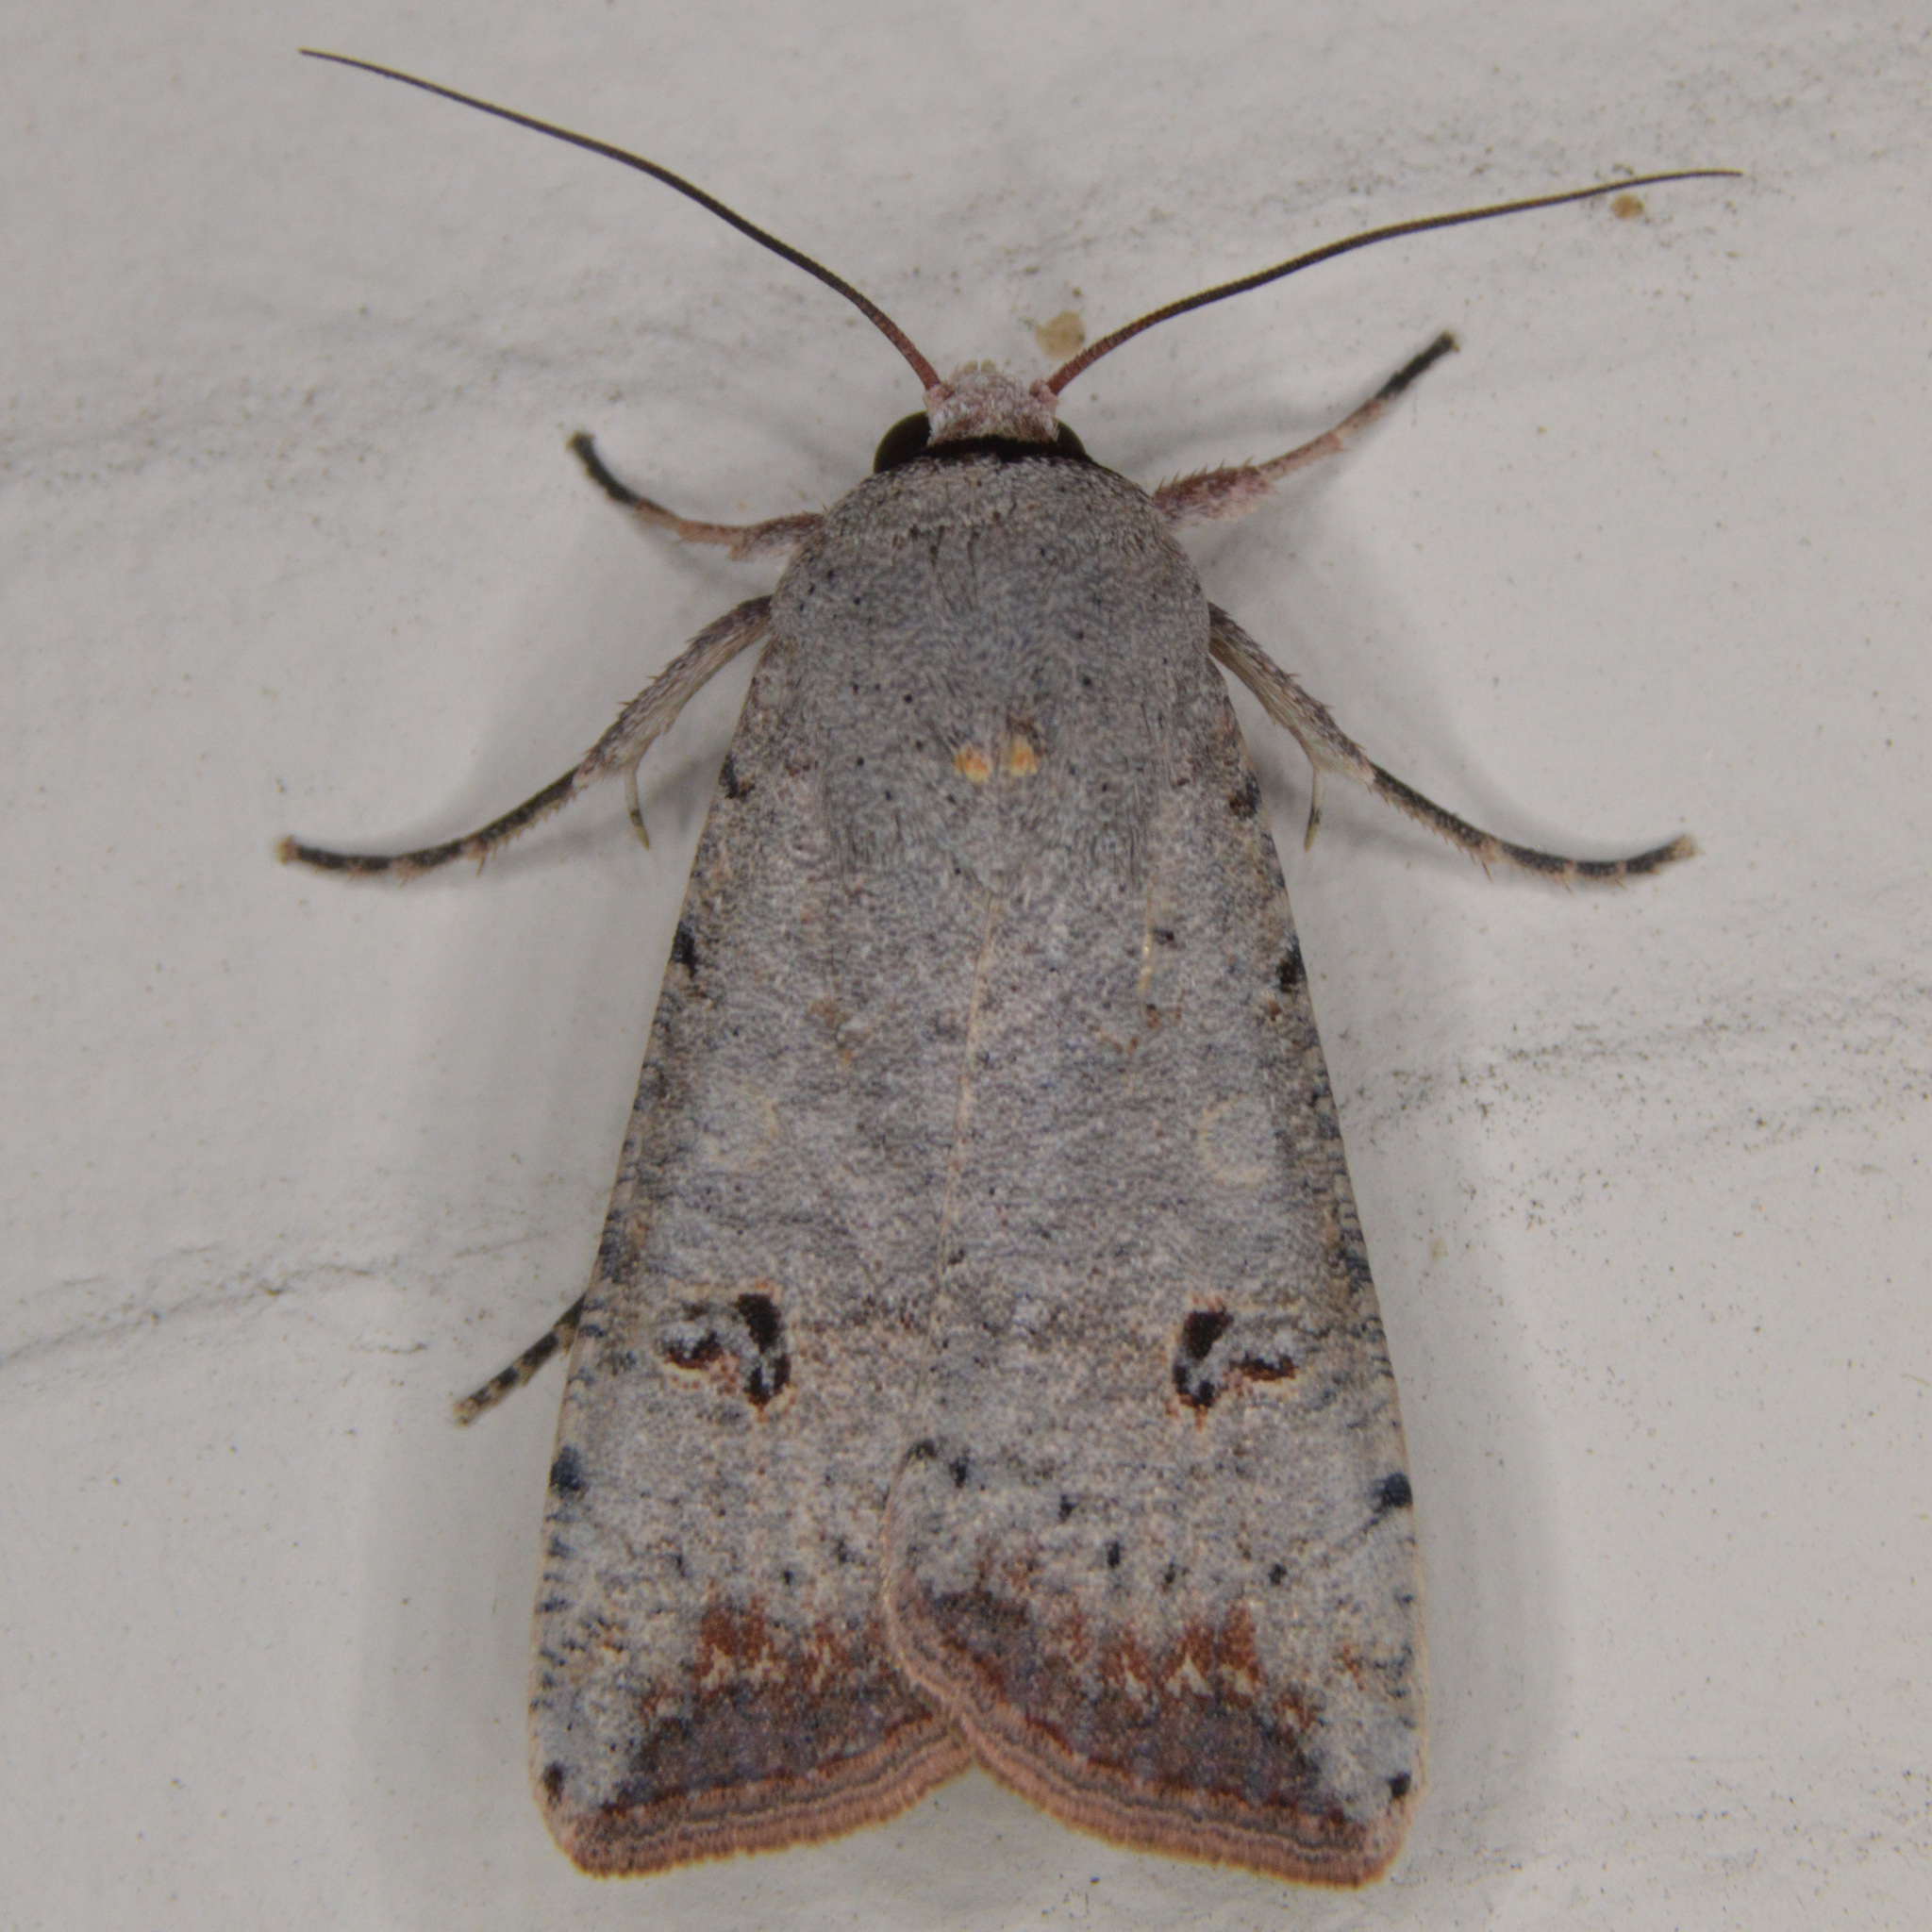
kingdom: Animalia
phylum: Arthropoda
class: Insecta
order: Lepidoptera
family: Noctuidae
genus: Anicla
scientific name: Anicla infecta
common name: Green cutworm
